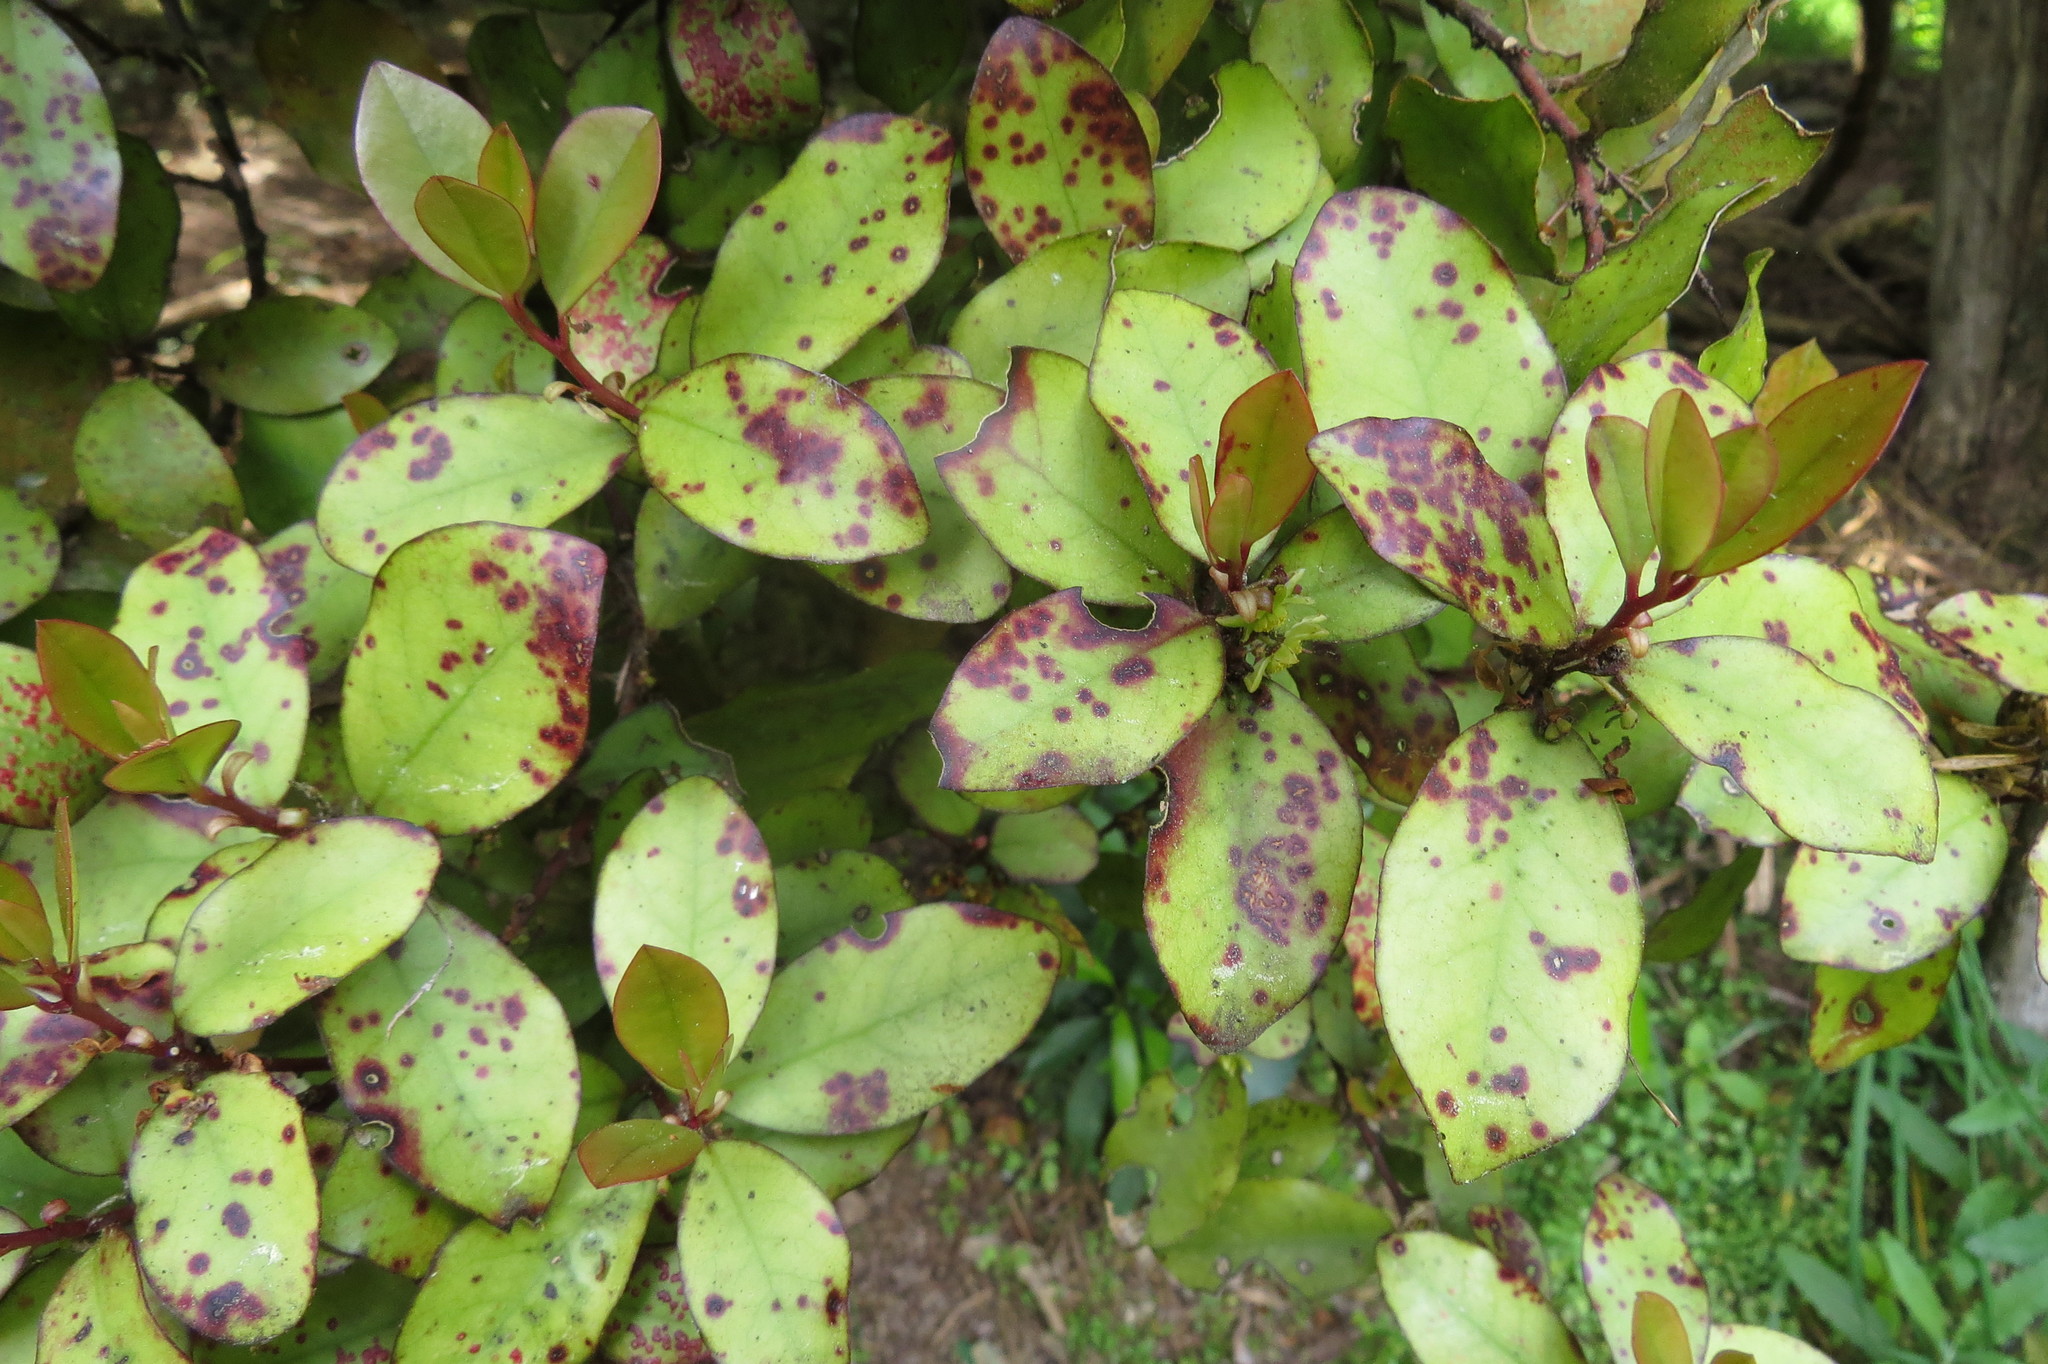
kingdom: Plantae
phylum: Tracheophyta
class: Magnoliopsida
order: Canellales
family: Winteraceae
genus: Pseudowintera
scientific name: Pseudowintera colorata
